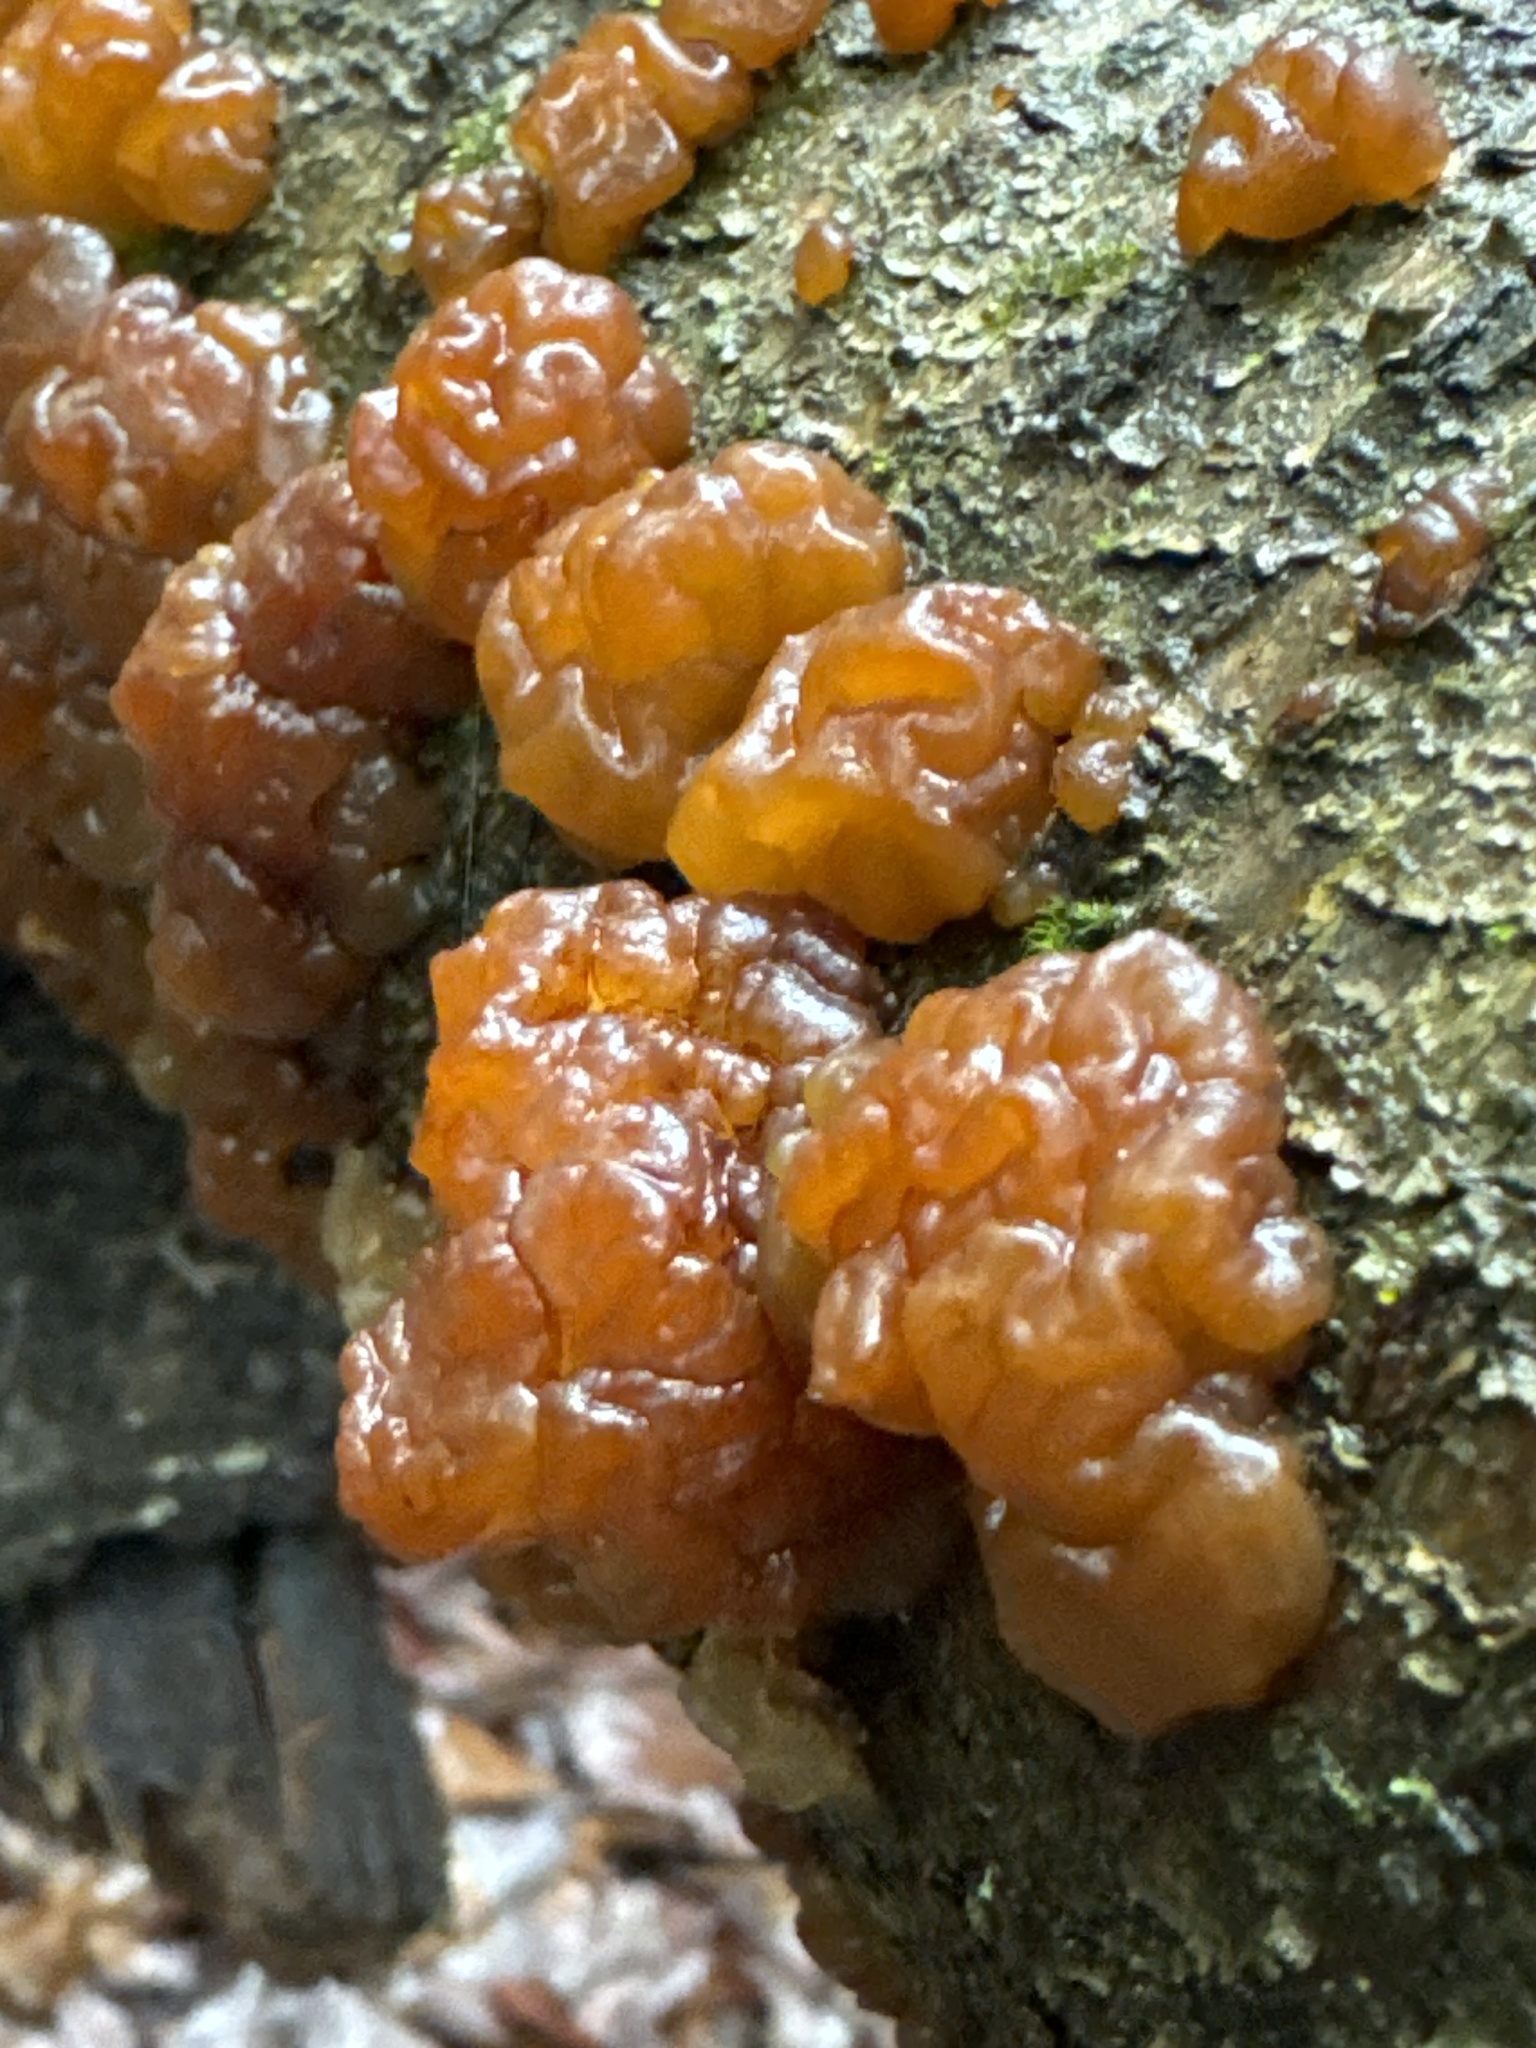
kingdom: Fungi
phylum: Basidiomycota
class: Agaricomycetes
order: Auriculariales
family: Auriculariaceae
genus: Exidia
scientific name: Exidia repanda
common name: Birch jelly
